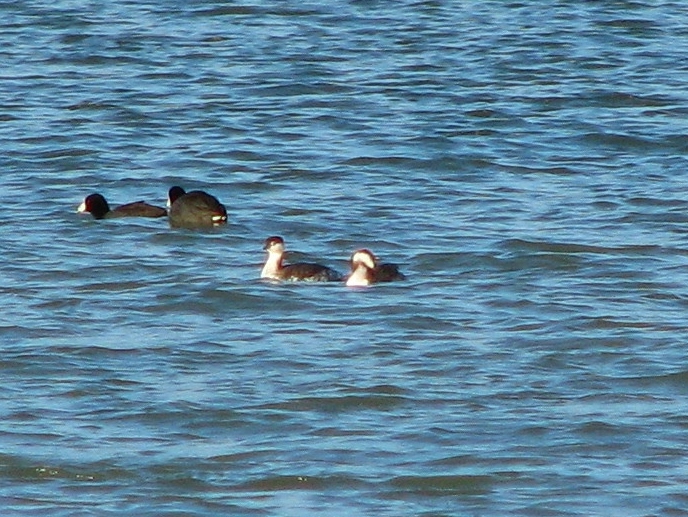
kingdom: Animalia
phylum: Chordata
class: Aves
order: Podicipediformes
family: Podicipedidae
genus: Podiceps
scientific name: Podiceps auritus
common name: Horned grebe
